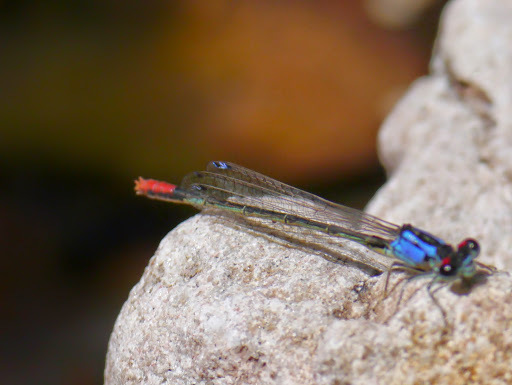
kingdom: Animalia
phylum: Arthropoda
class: Insecta
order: Odonata
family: Coenagrionidae
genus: Hesperagrion
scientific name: Hesperagrion heterodoxum
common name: Painted damsel
